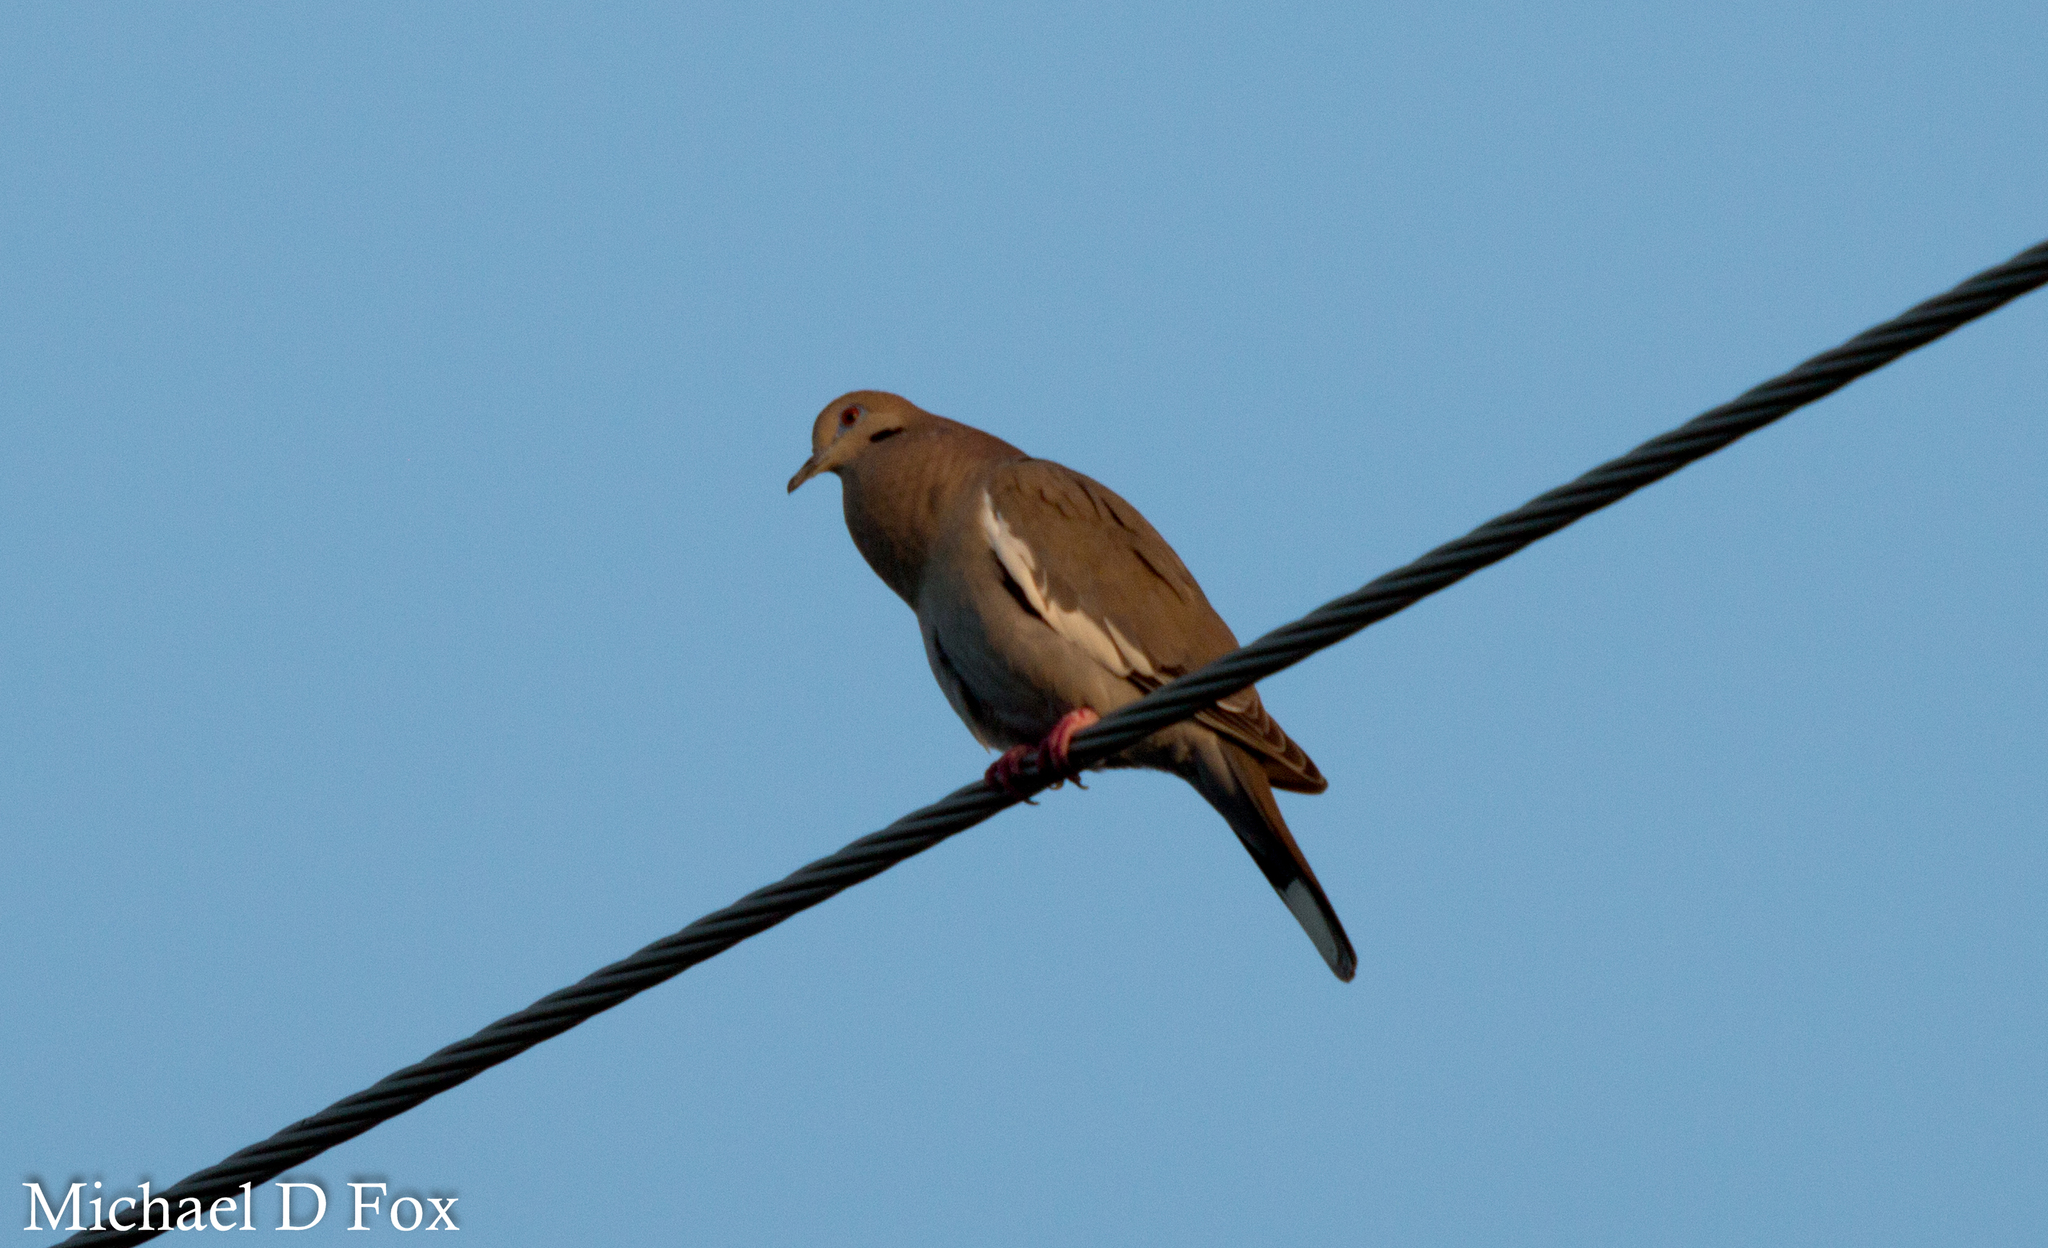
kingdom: Animalia
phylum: Chordata
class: Aves
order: Columbiformes
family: Columbidae
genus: Zenaida
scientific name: Zenaida asiatica
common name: White-winged dove
